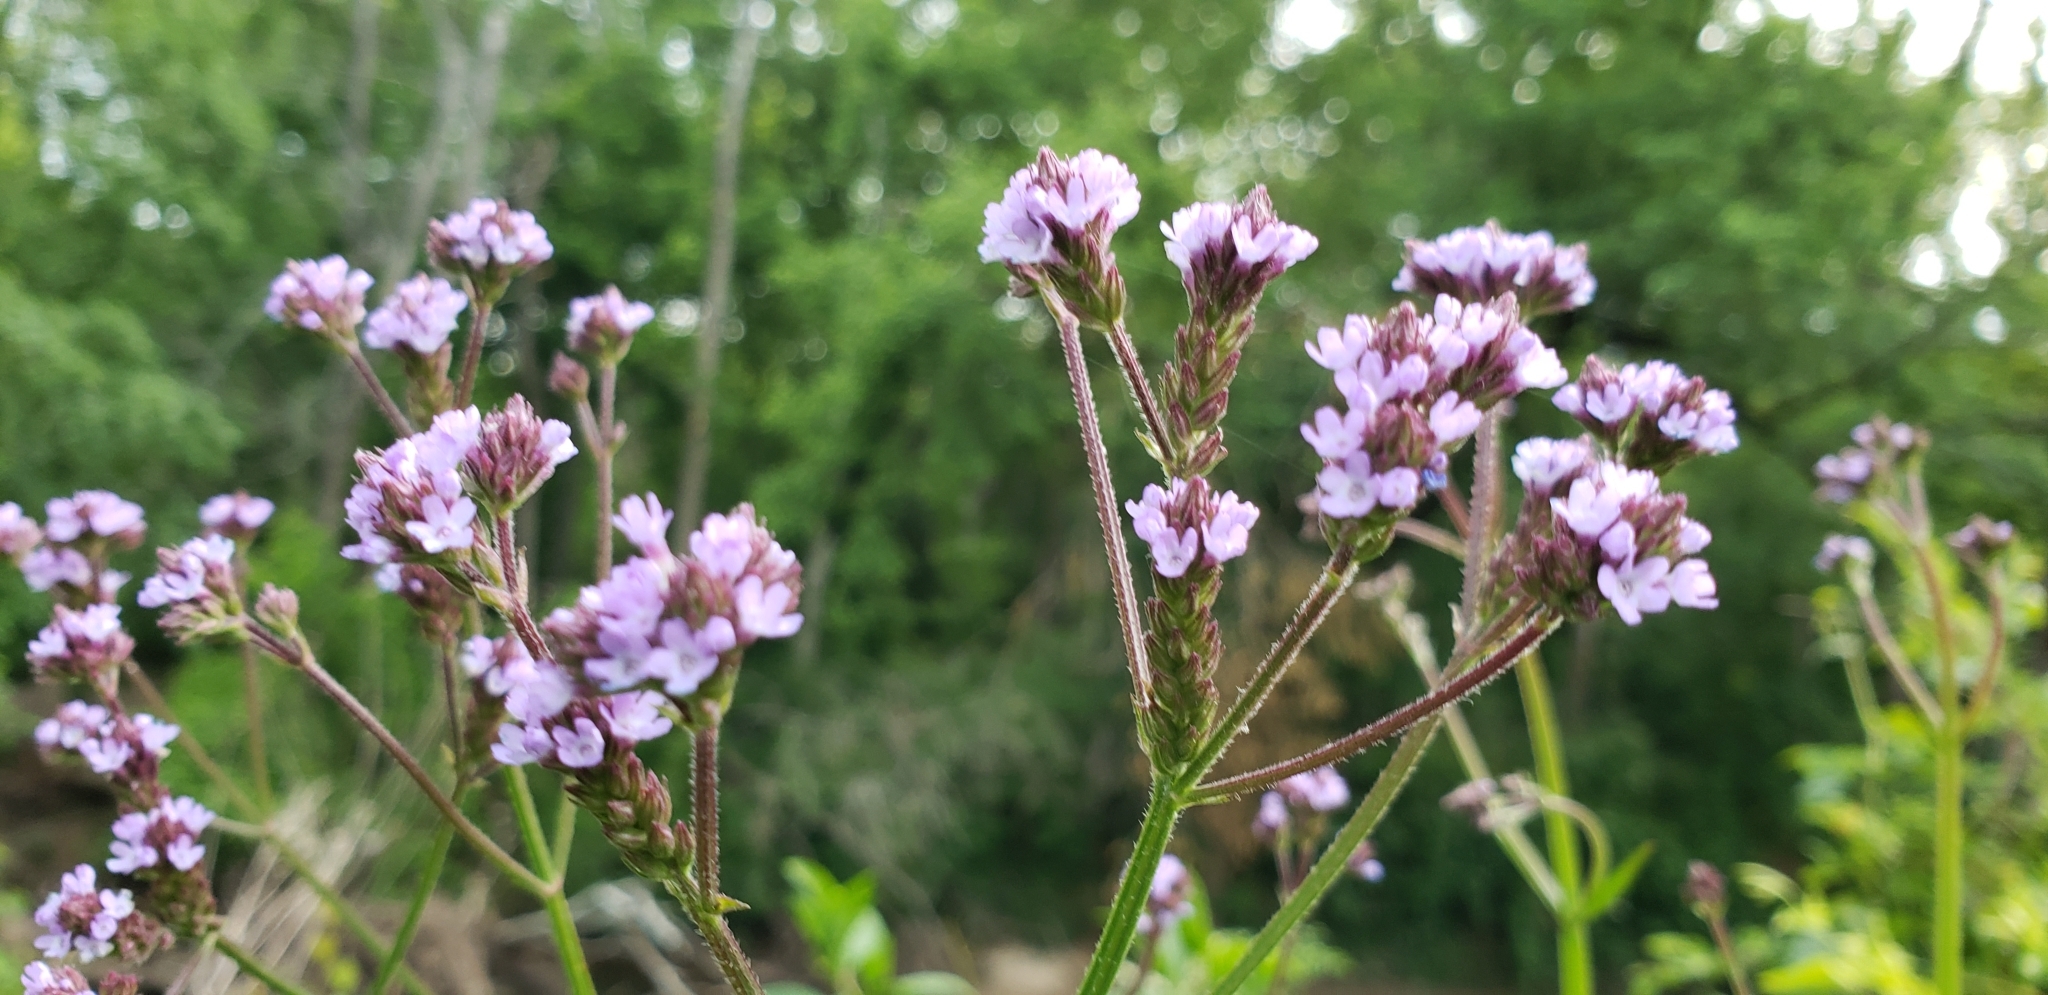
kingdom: Plantae
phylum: Tracheophyta
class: Magnoliopsida
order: Lamiales
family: Verbenaceae
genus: Verbena
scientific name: Verbena brasiliensis
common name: Brazilian vervain
